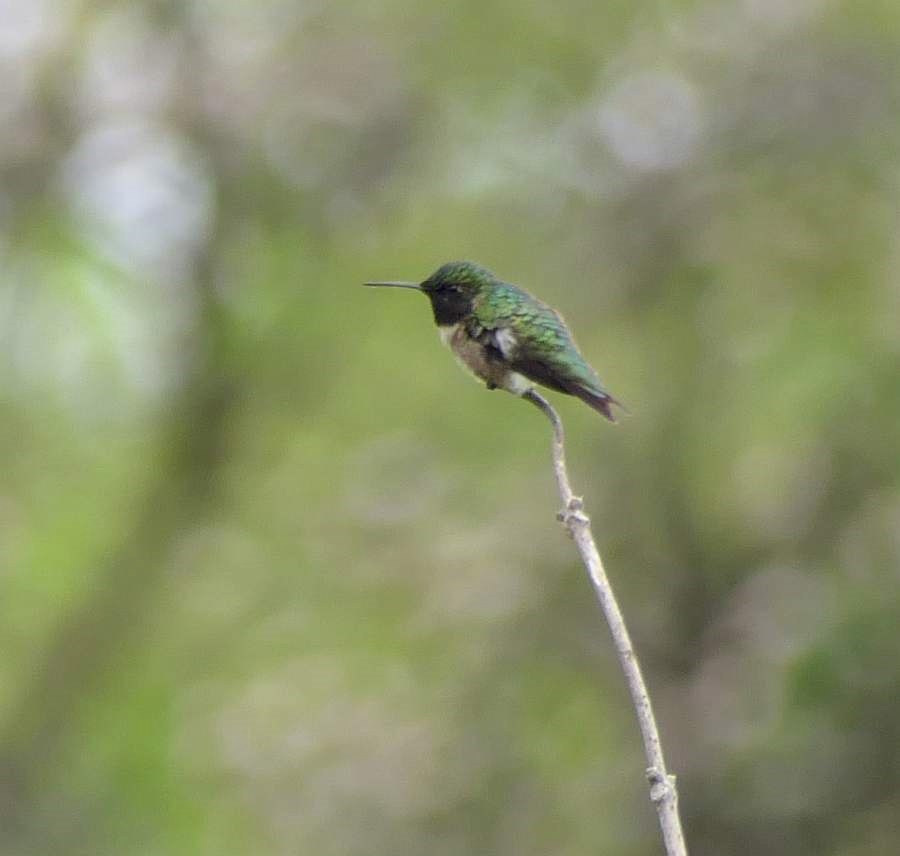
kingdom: Animalia
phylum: Chordata
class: Aves
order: Apodiformes
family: Trochilidae
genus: Archilochus
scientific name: Archilochus colubris
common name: Ruby-throated hummingbird
